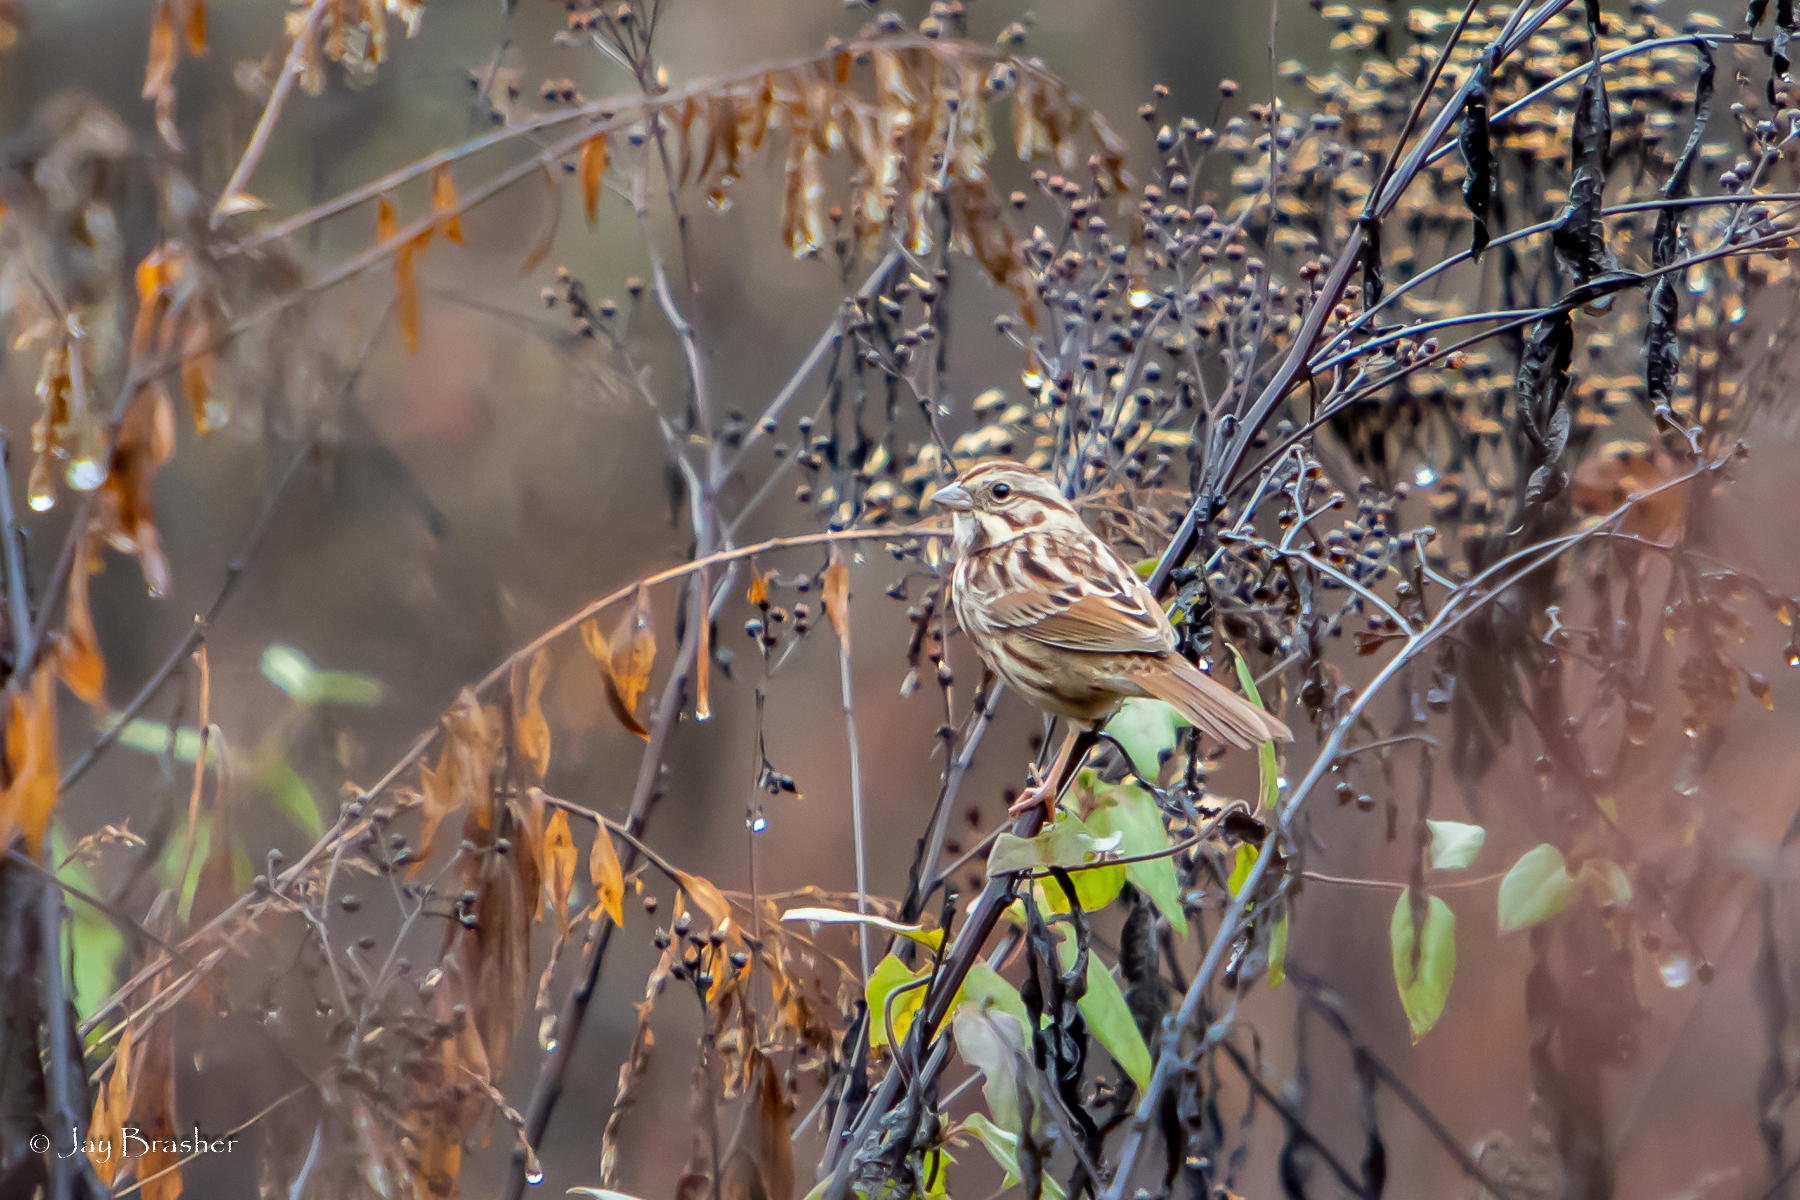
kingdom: Animalia
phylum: Chordata
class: Aves
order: Passeriformes
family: Passerellidae
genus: Melospiza
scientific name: Melospiza melodia
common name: Song sparrow
